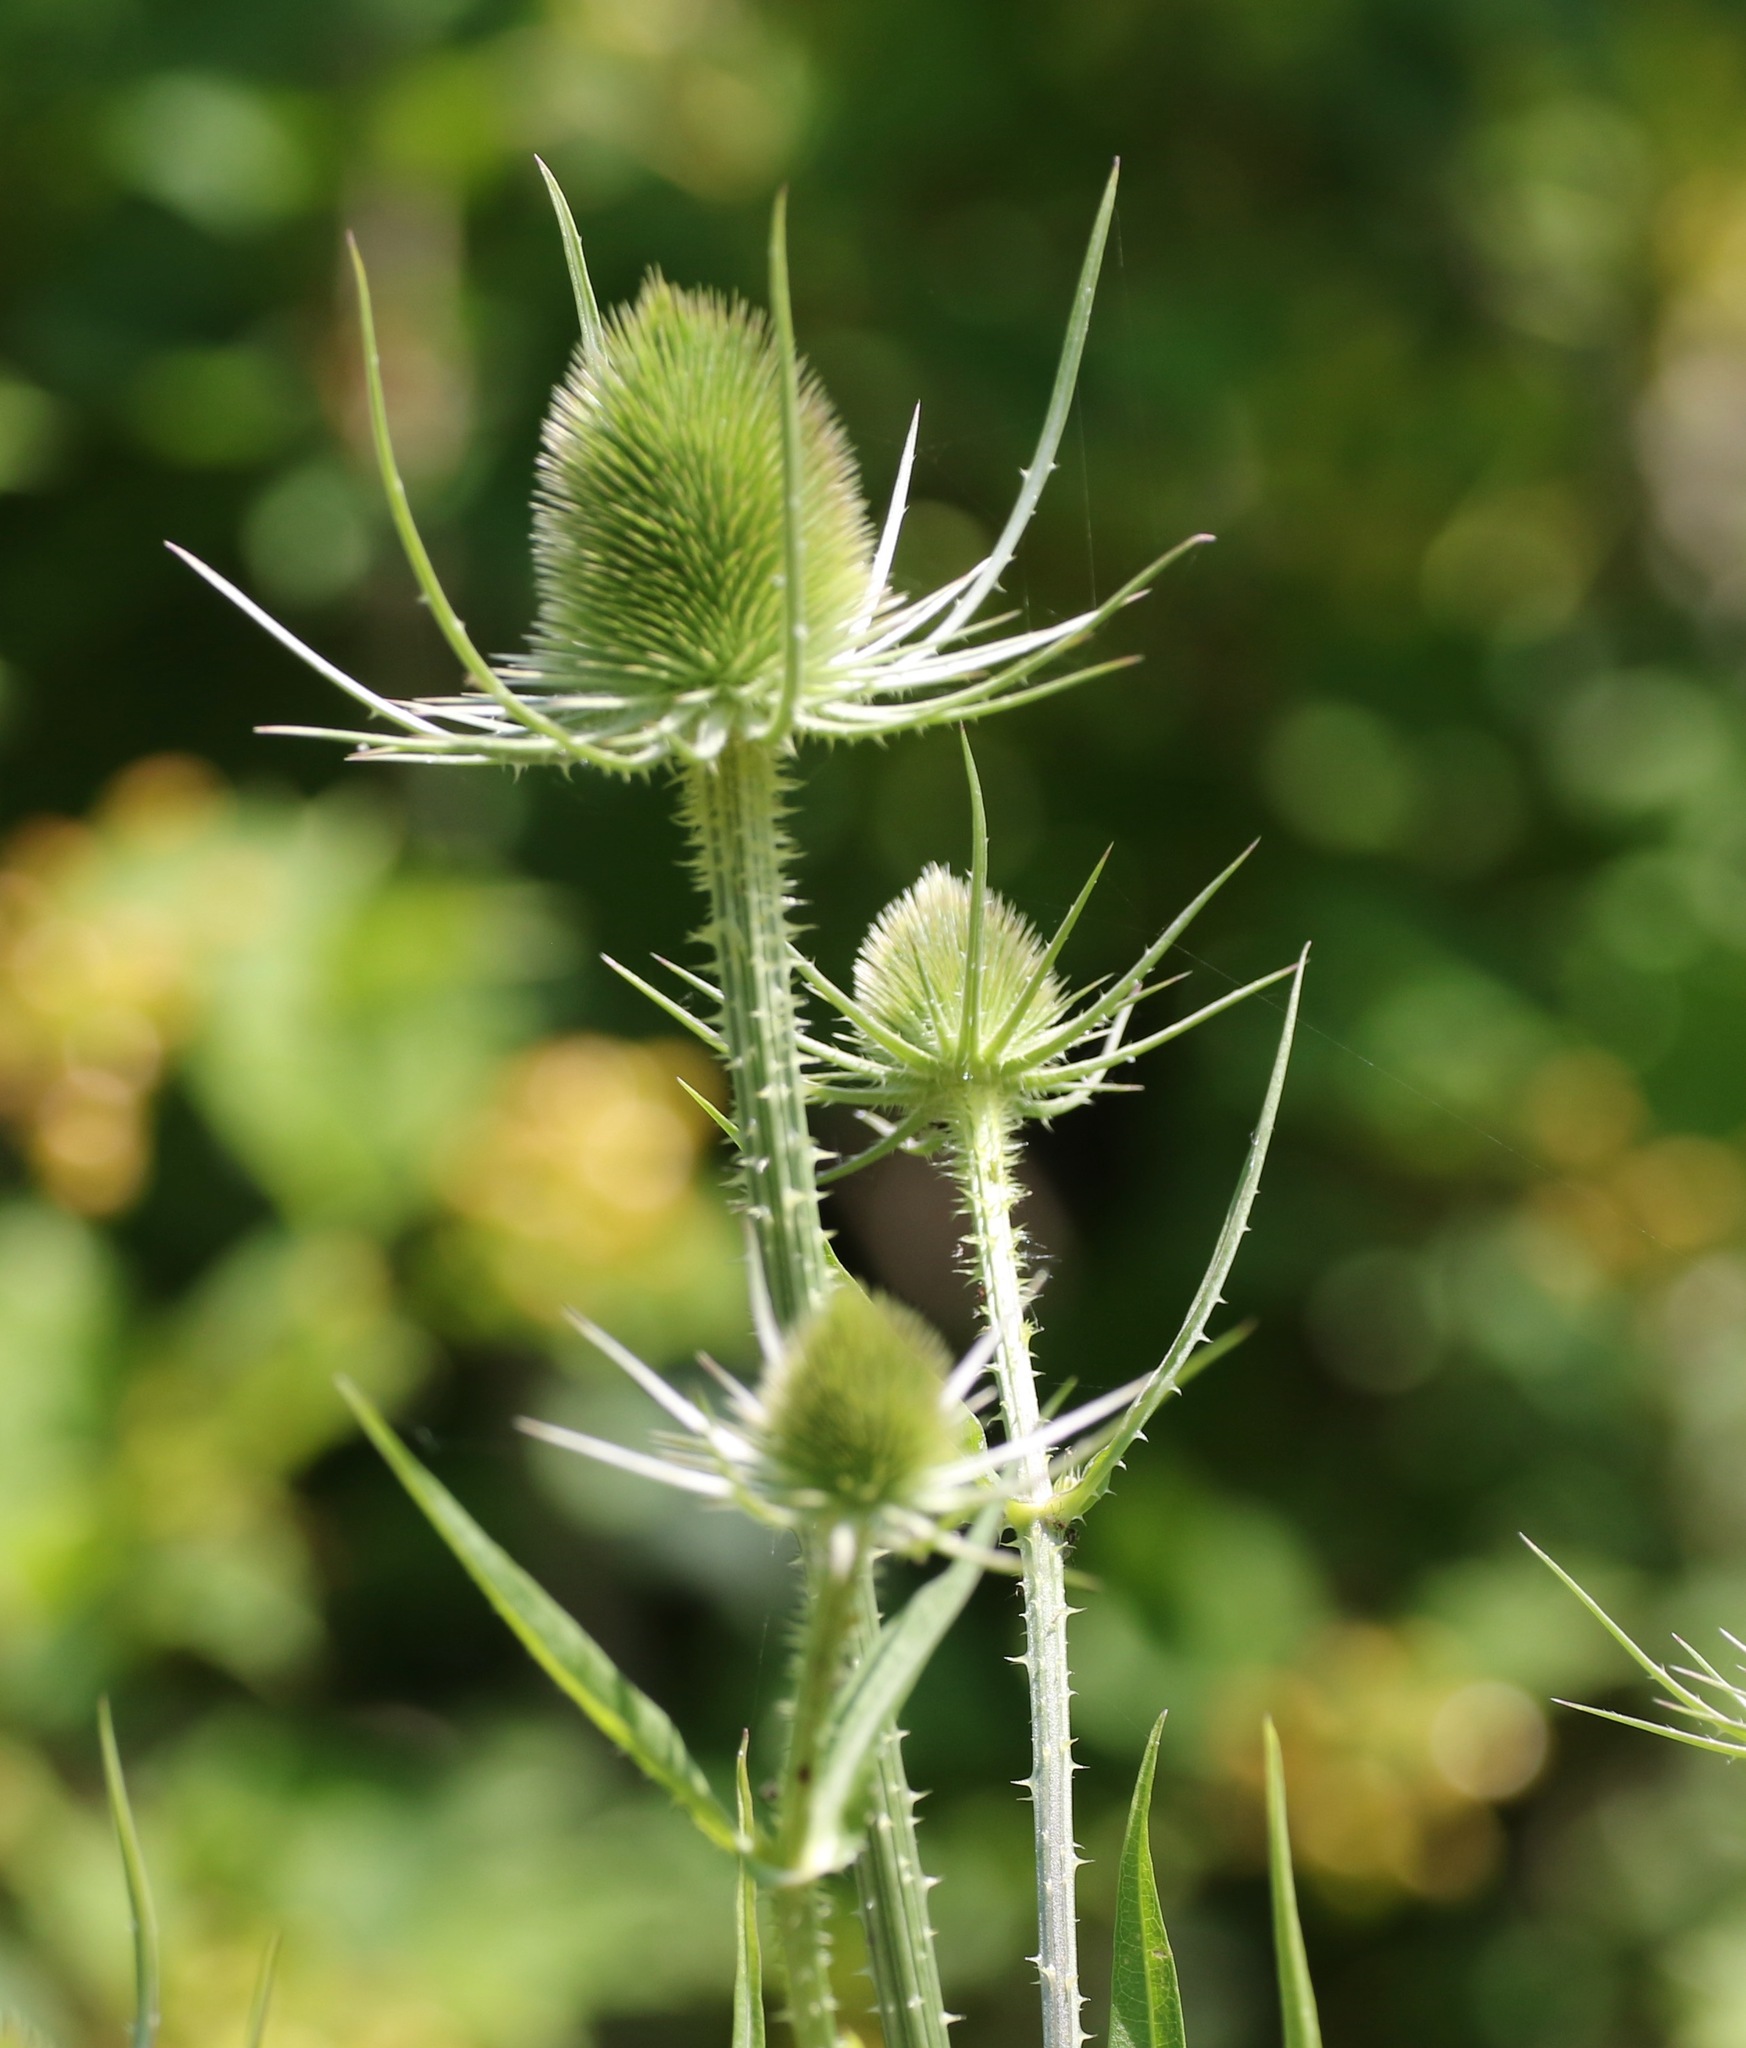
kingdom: Plantae
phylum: Tracheophyta
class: Magnoliopsida
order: Dipsacales
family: Caprifoliaceae
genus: Dipsacus
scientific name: Dipsacus fullonum
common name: Teasel
